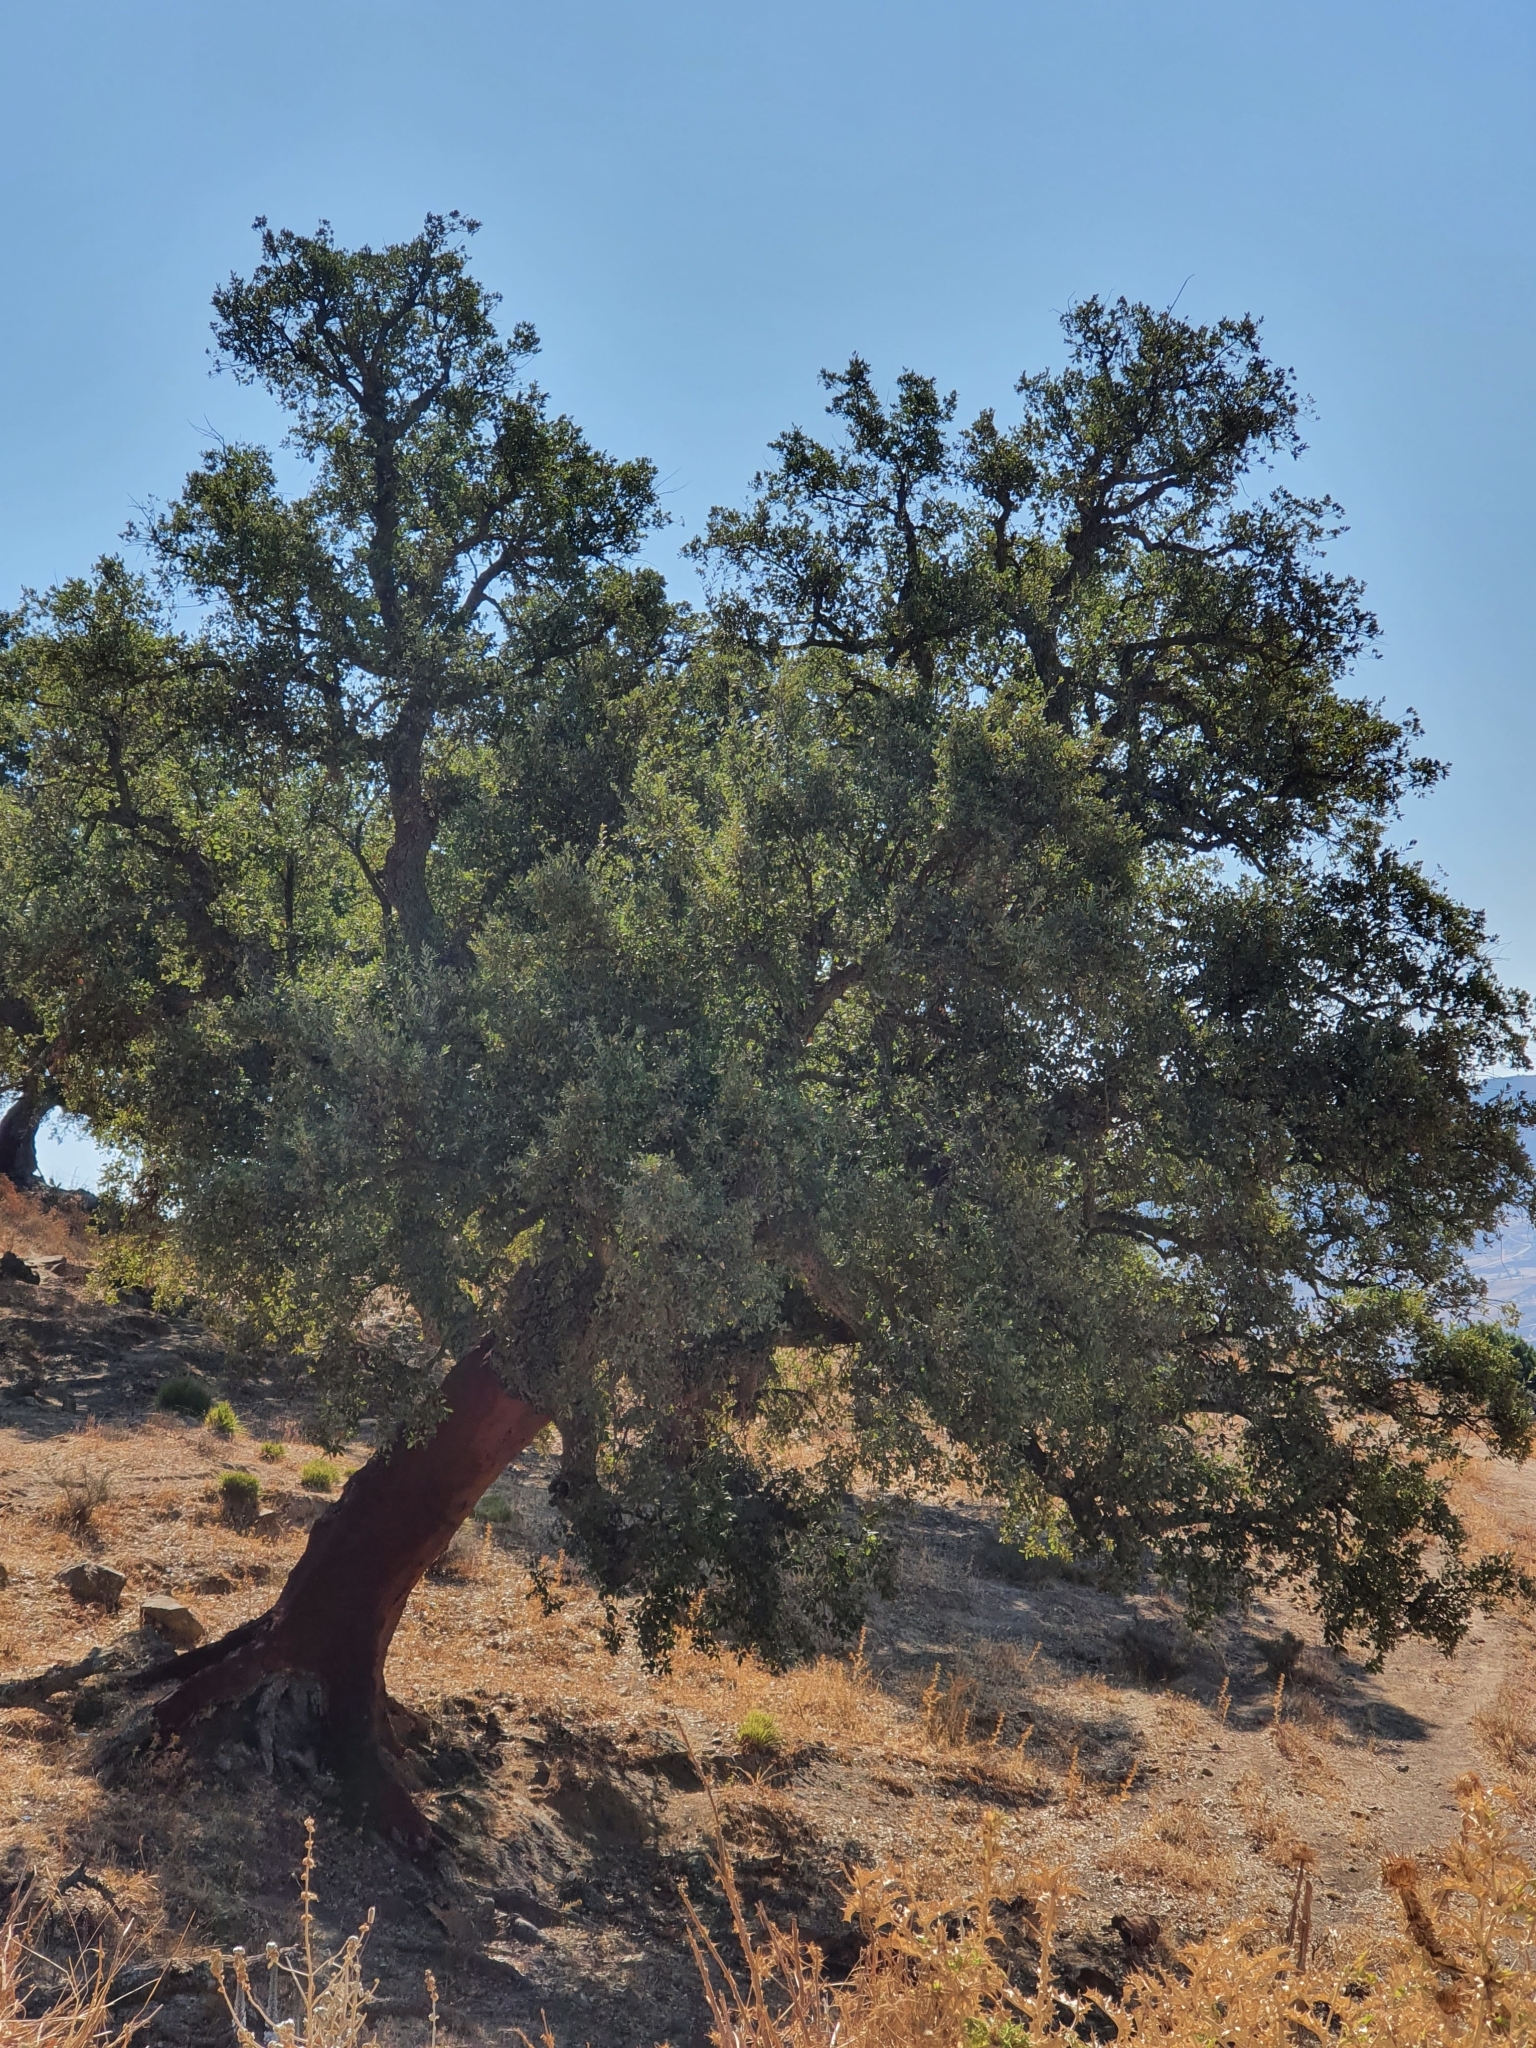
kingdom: Plantae
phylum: Tracheophyta
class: Magnoliopsida
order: Fagales
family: Fagaceae
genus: Quercus
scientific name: Quercus suber
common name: Cork oak
